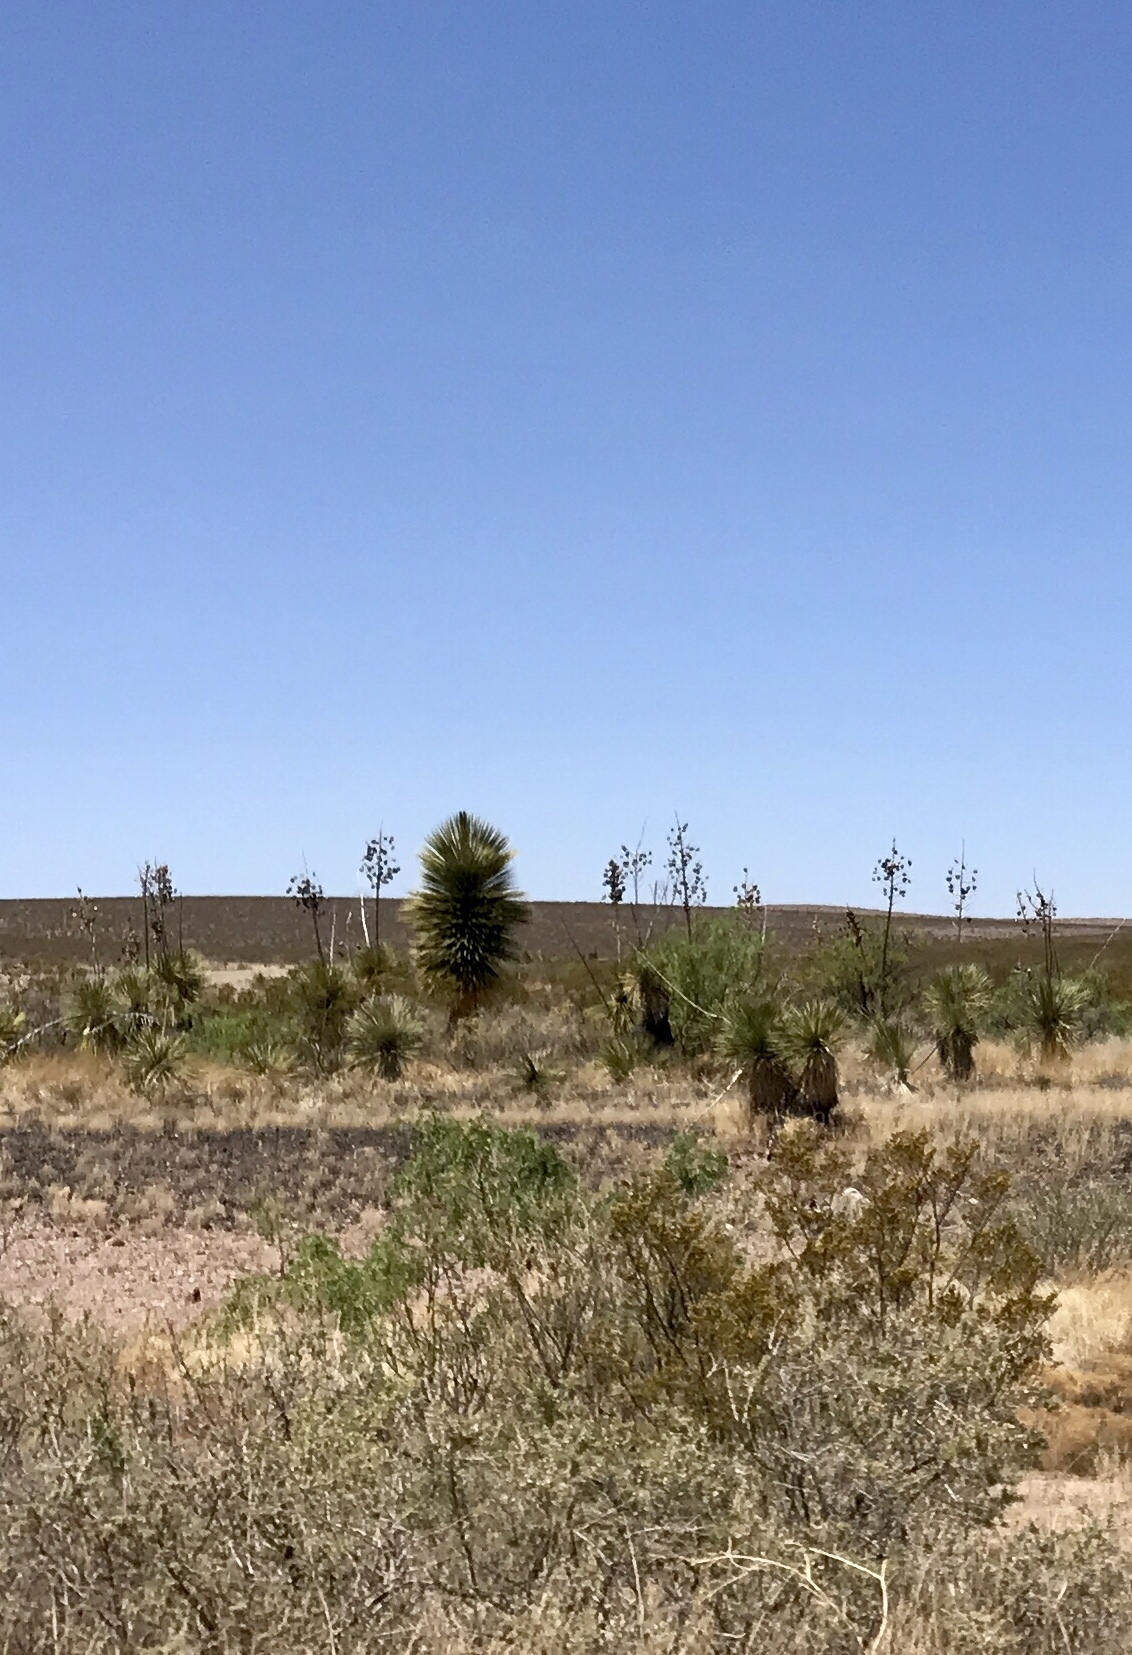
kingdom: Plantae
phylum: Tracheophyta
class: Liliopsida
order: Asparagales
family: Asparagaceae
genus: Yucca
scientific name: Yucca elata
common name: Palmella
